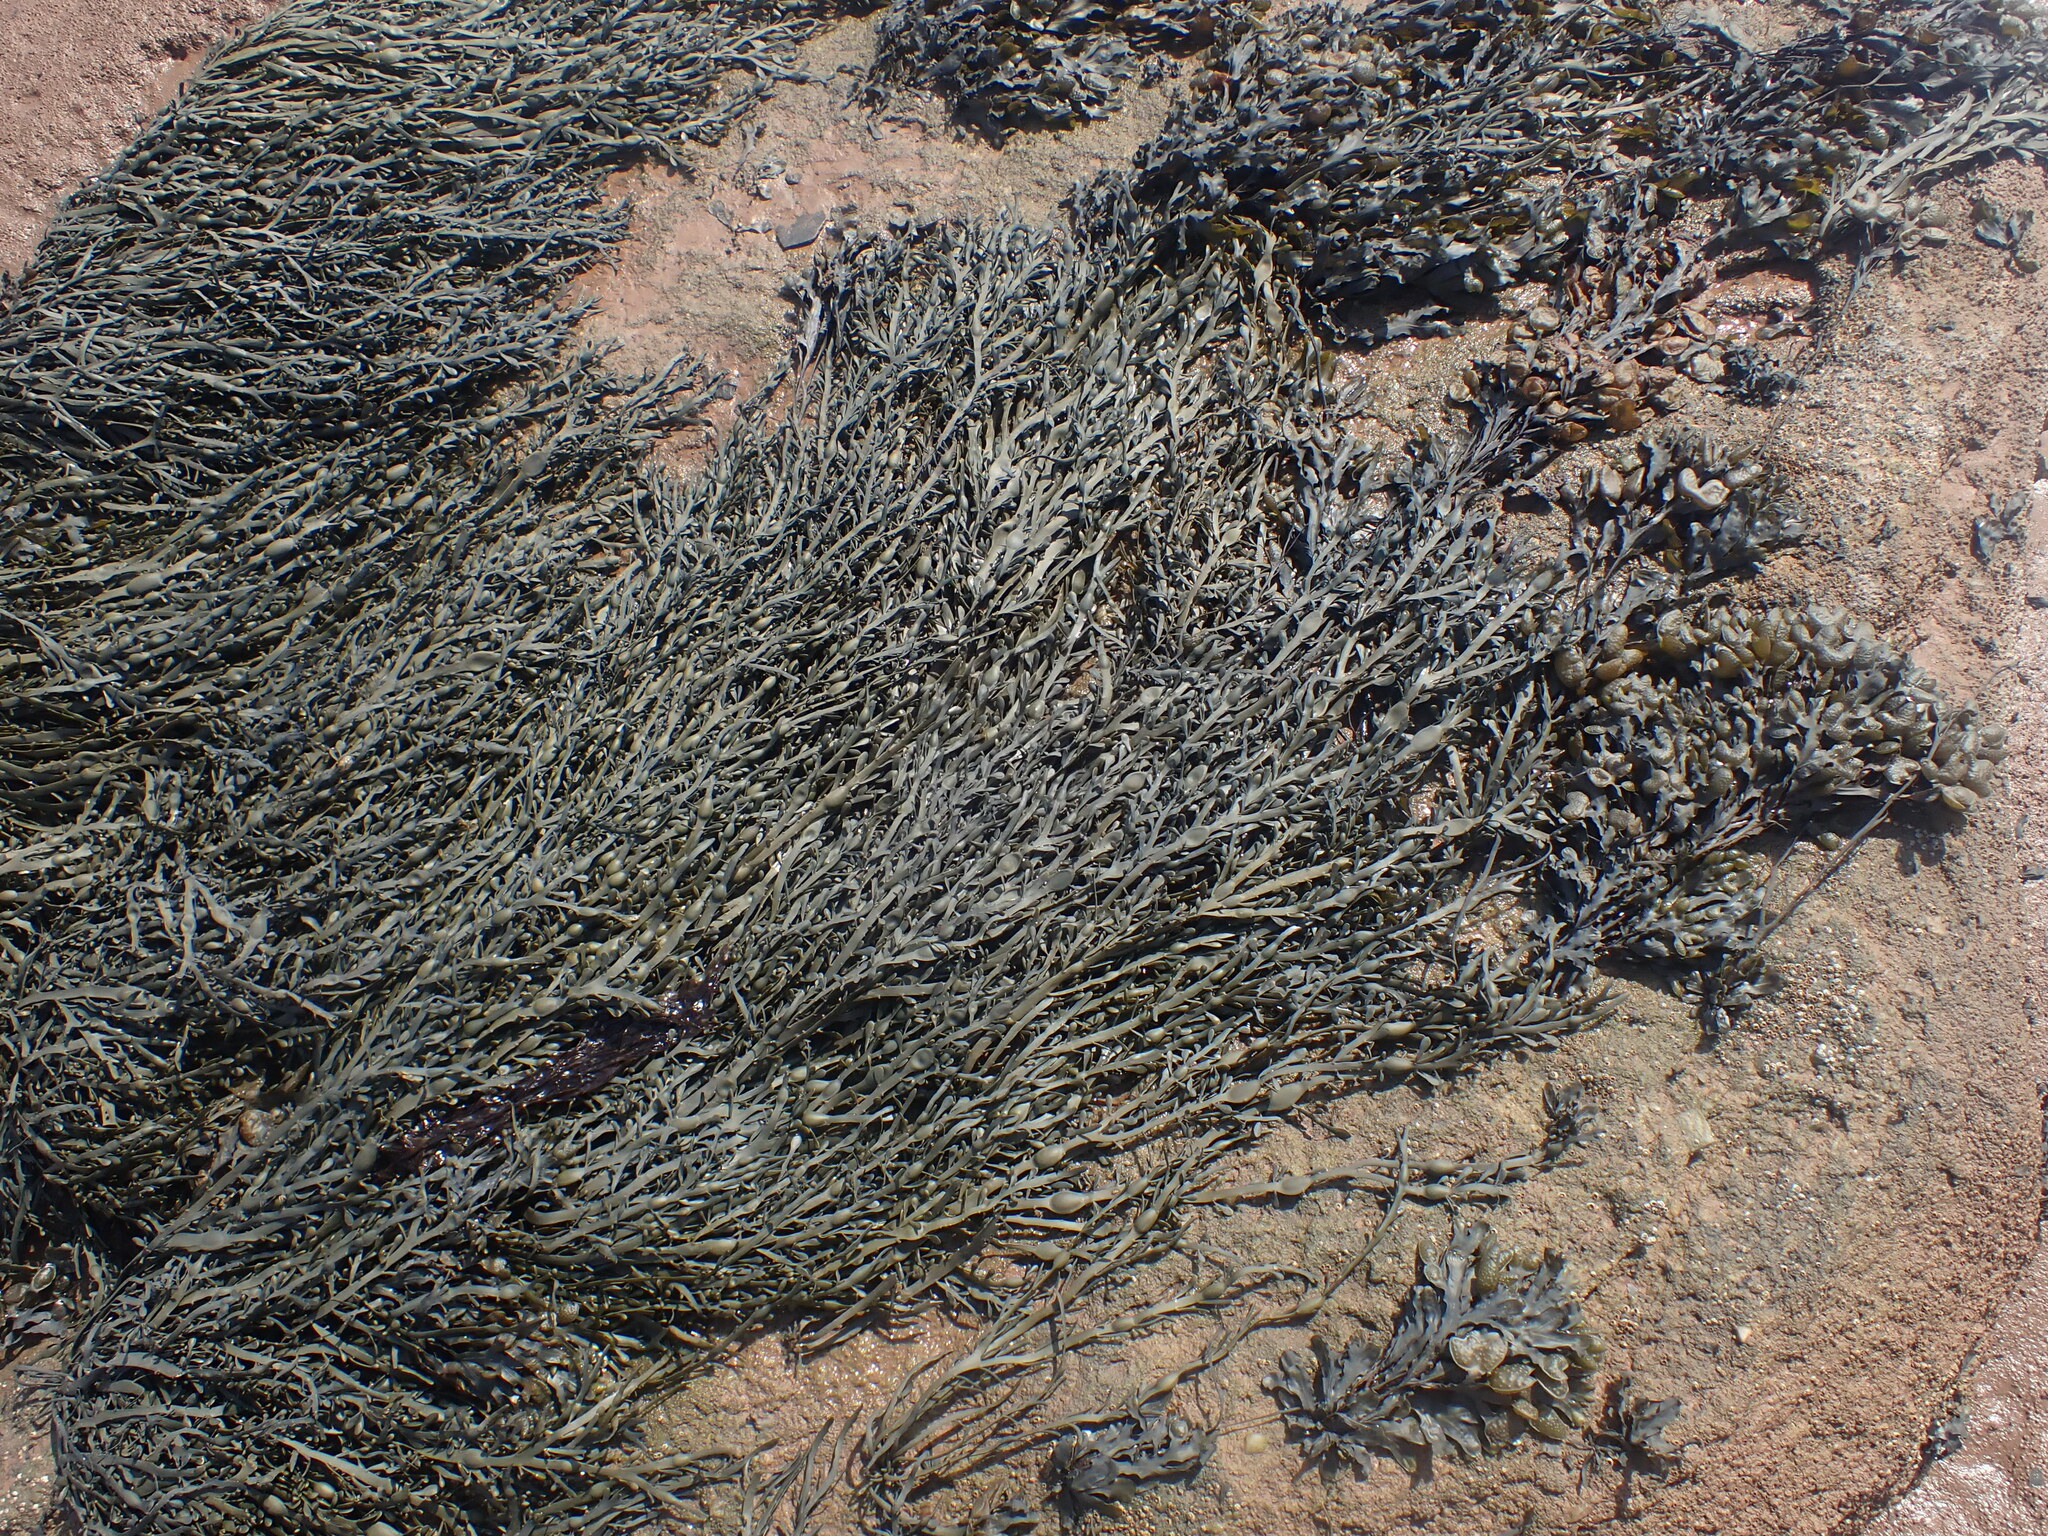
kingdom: Chromista
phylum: Ochrophyta
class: Phaeophyceae
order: Fucales
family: Fucaceae
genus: Ascophyllum
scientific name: Ascophyllum nodosum
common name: Knotted wrack
